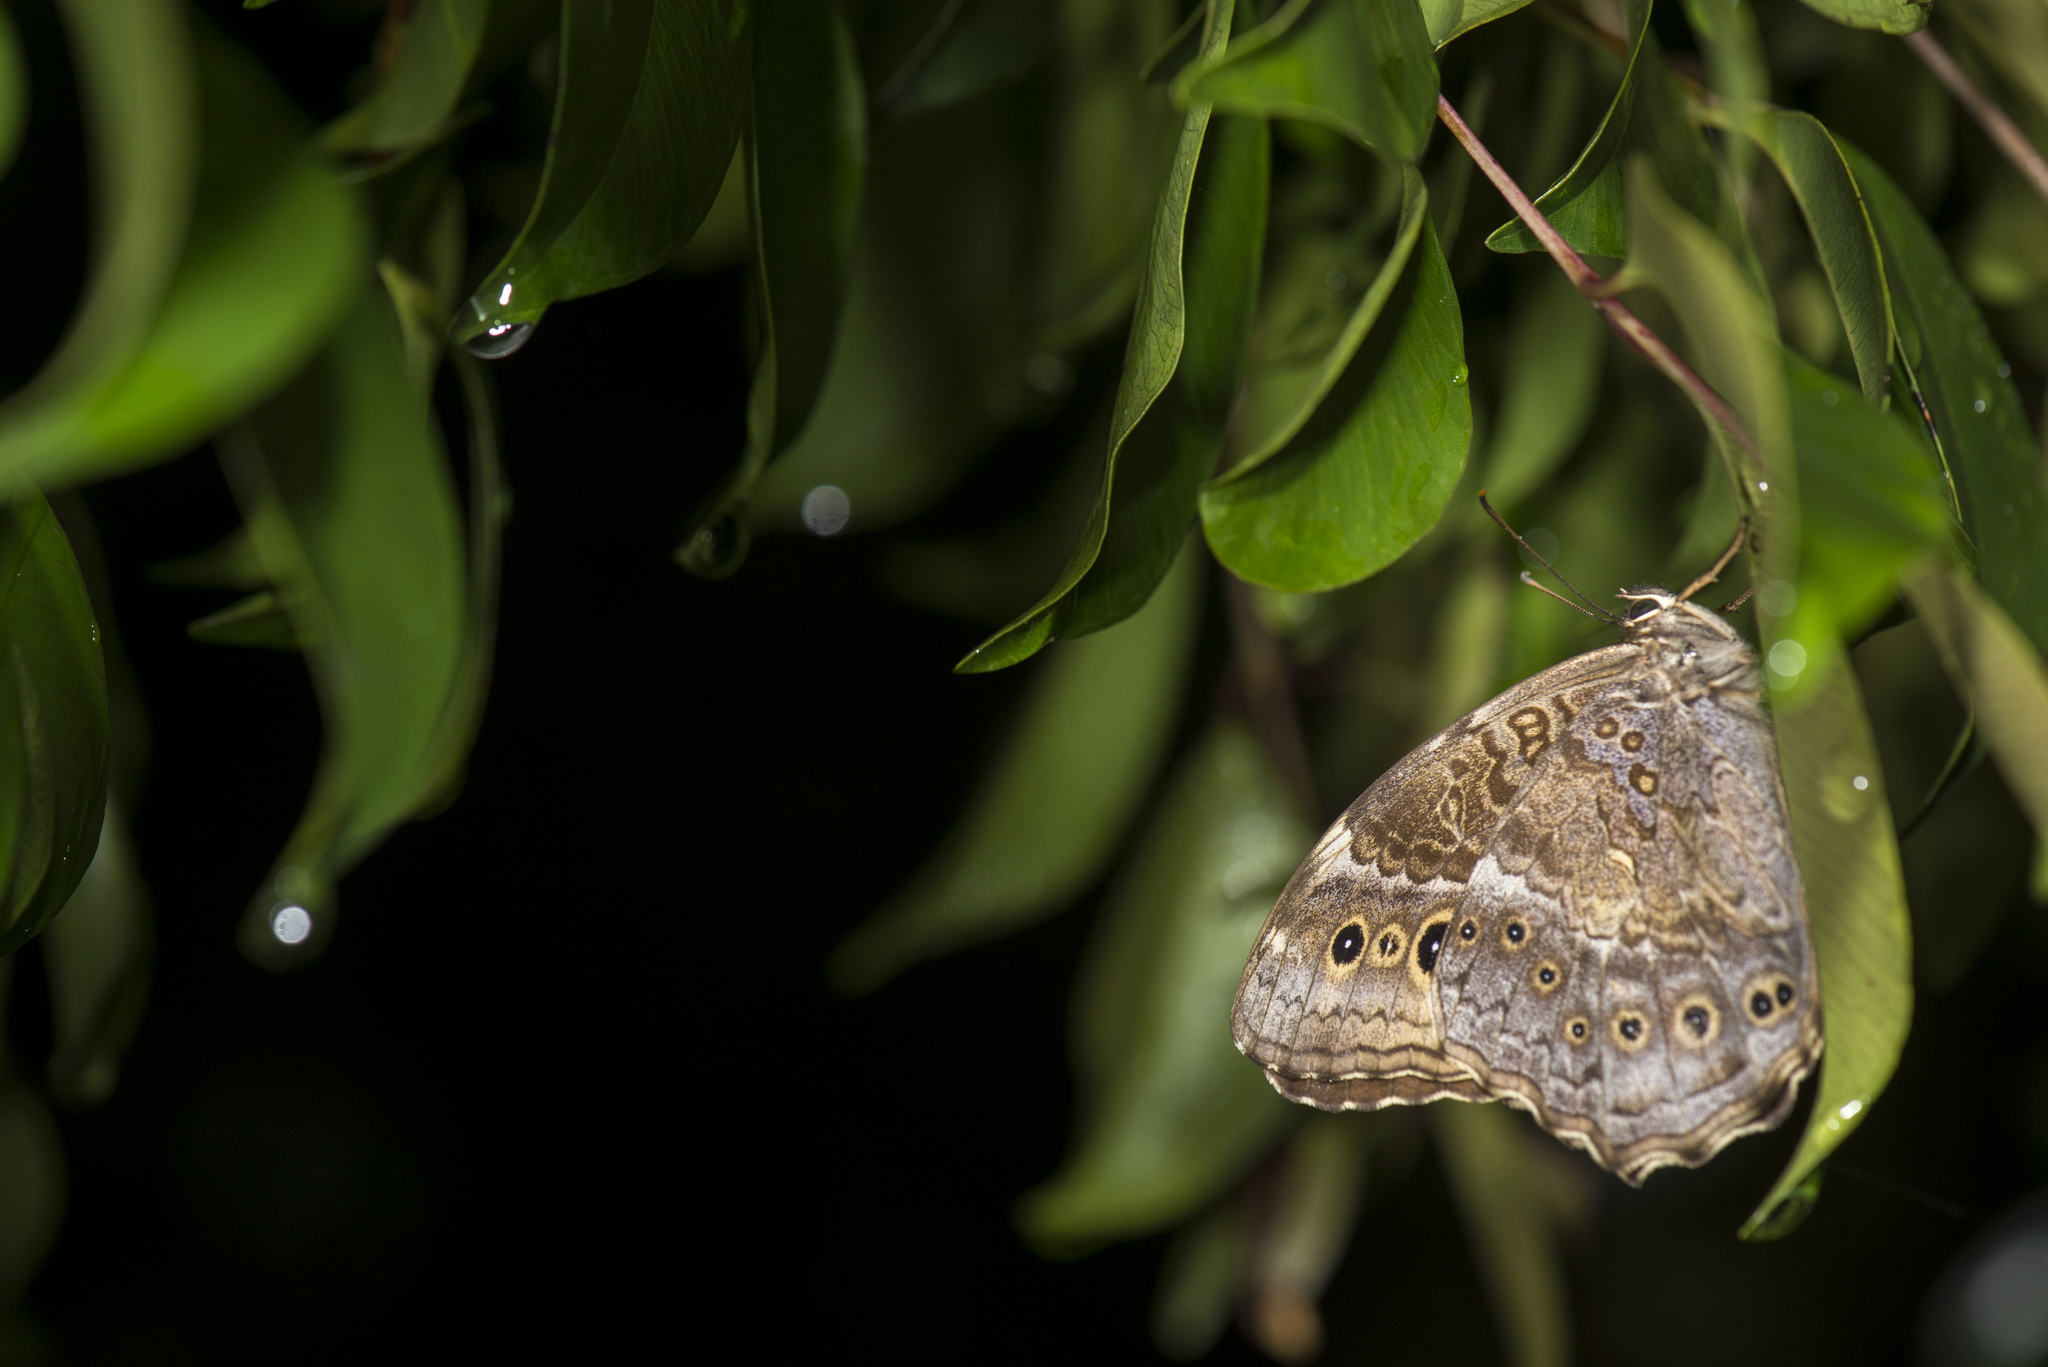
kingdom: Animalia
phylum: Arthropoda
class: Insecta
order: Lepidoptera
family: Nymphalidae
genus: Neope
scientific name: Neope muirheadii
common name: Black-spotted labyrinth
